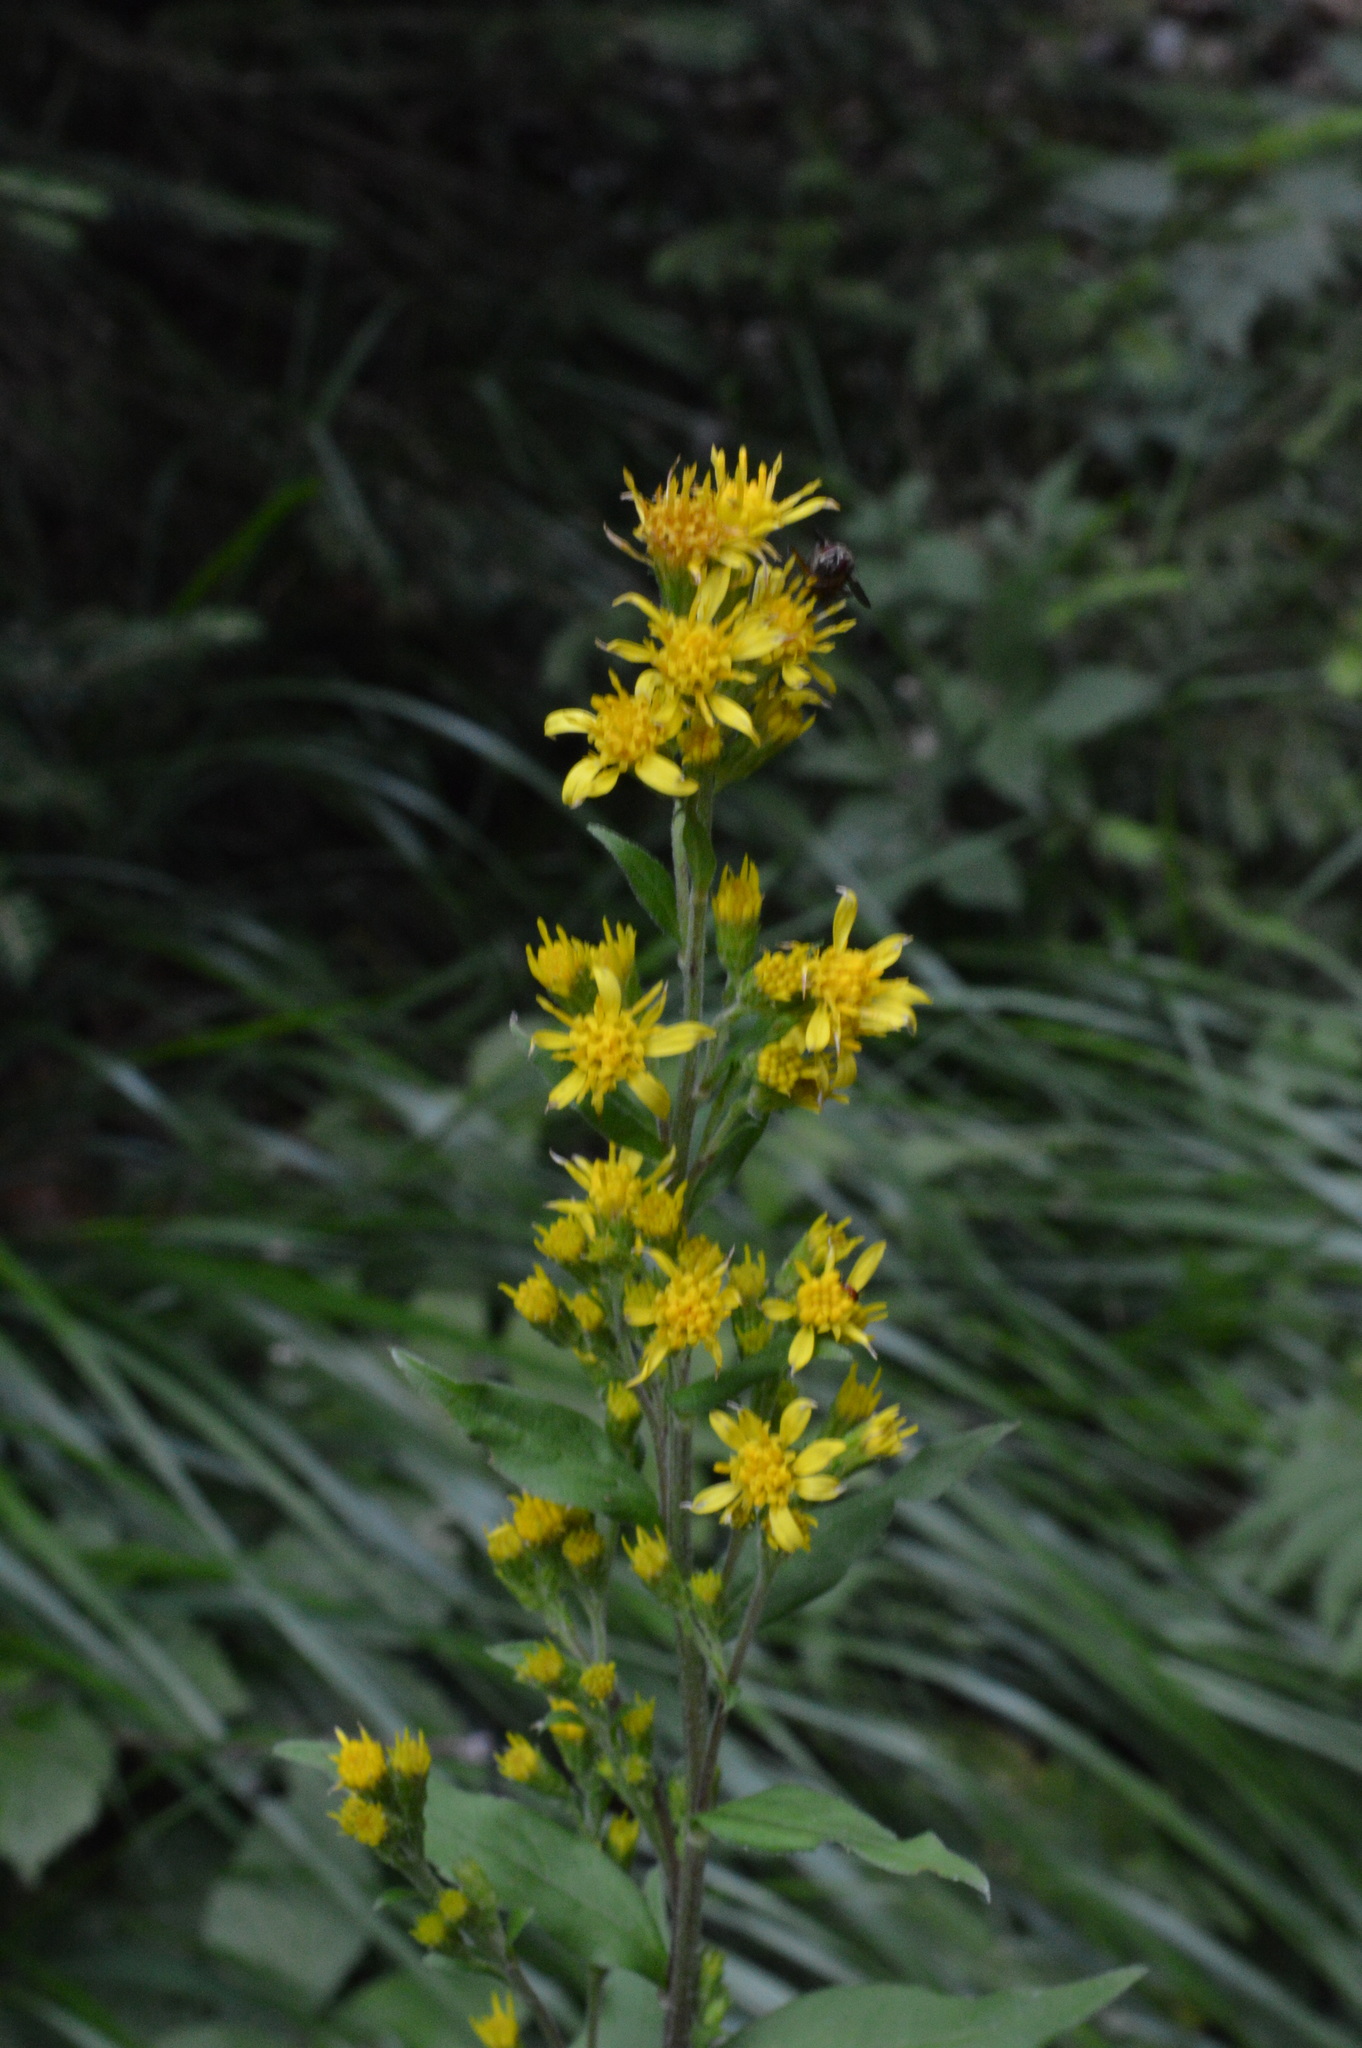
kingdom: Plantae
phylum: Tracheophyta
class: Magnoliopsida
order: Asterales
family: Asteraceae
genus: Solidago
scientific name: Solidago virgaurea
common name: Goldenrod
